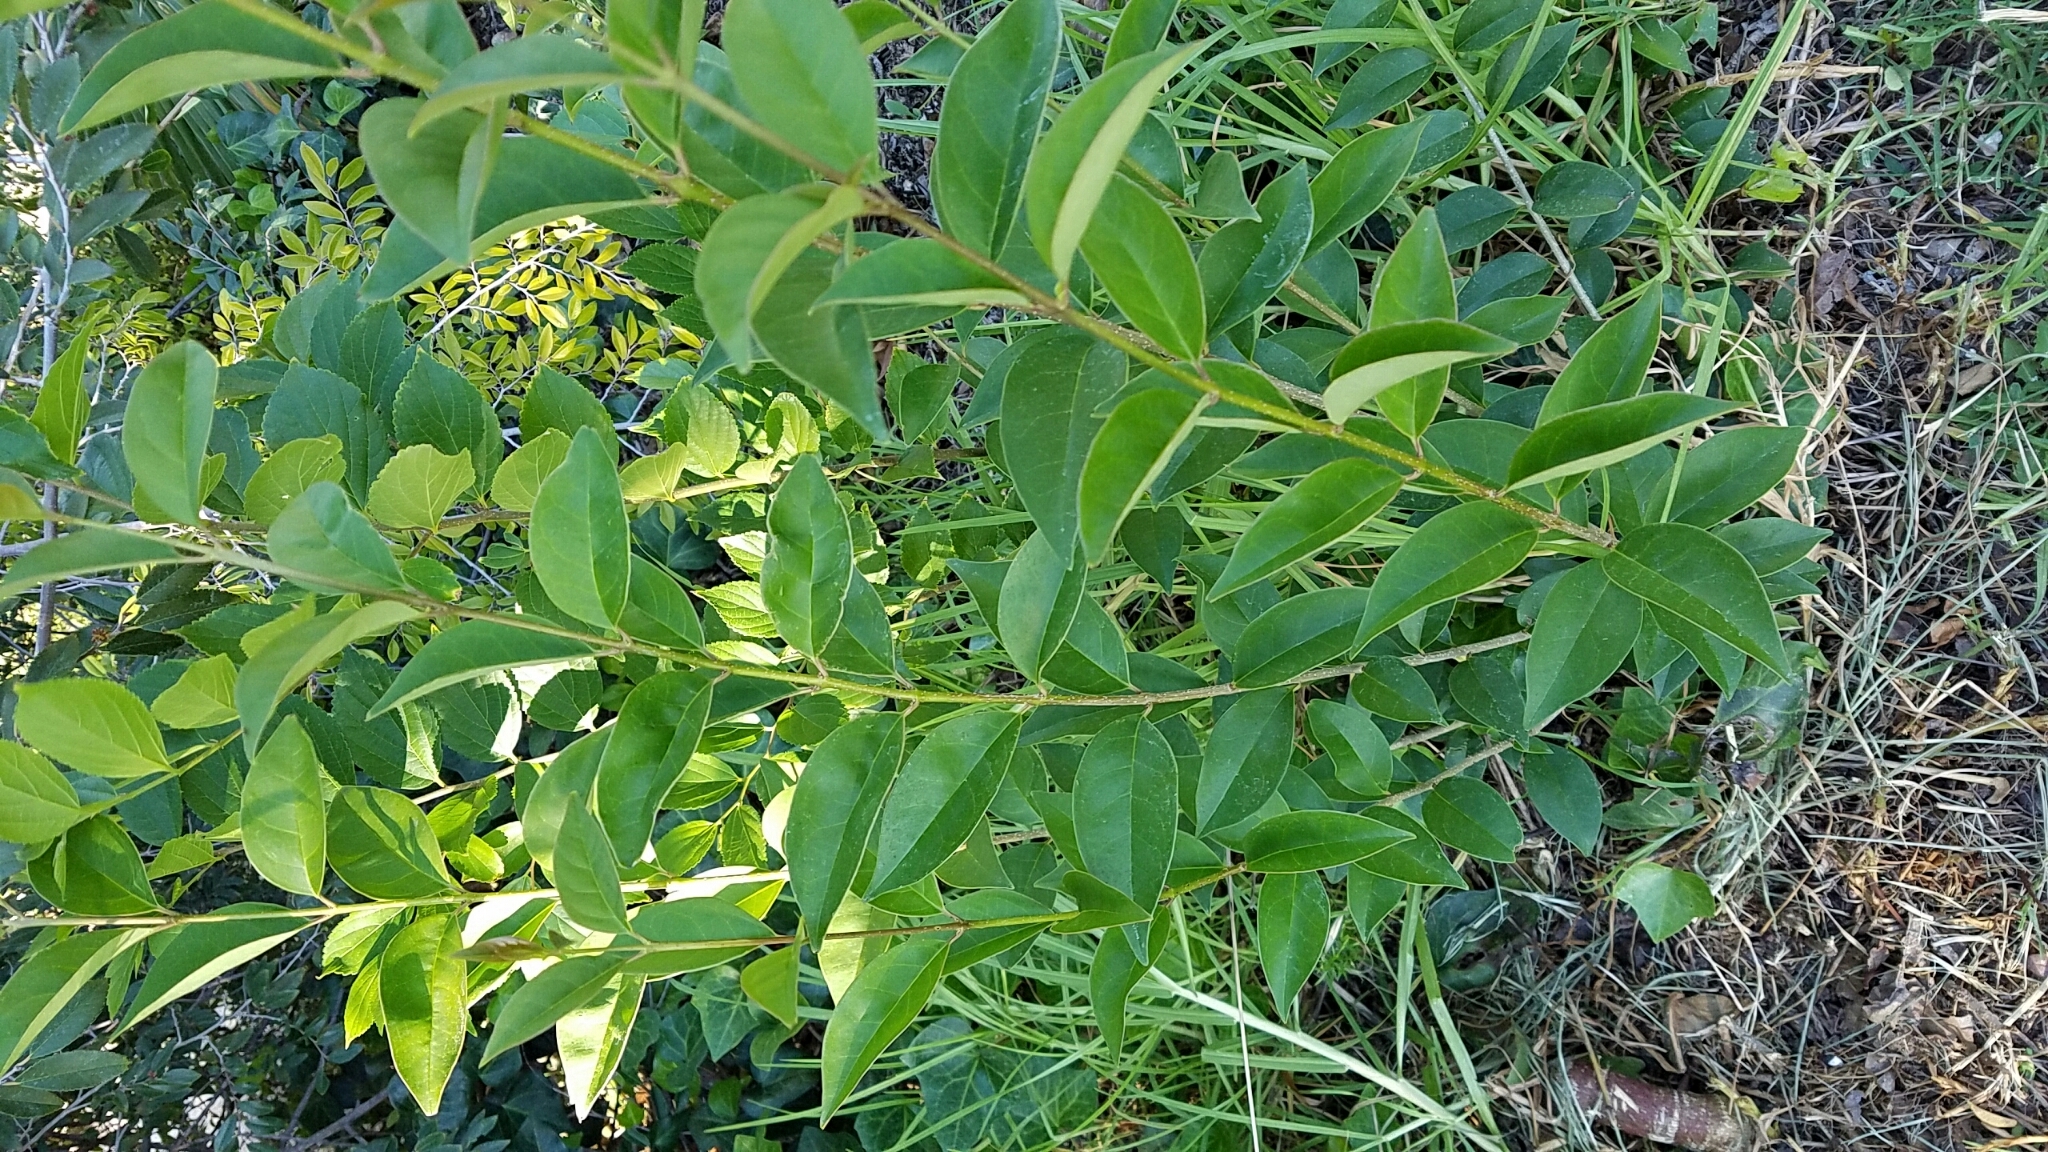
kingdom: Plantae
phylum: Tracheophyta
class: Magnoliopsida
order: Lamiales
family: Oleaceae
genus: Ligustrum
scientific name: Ligustrum lucidum
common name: Glossy privet
